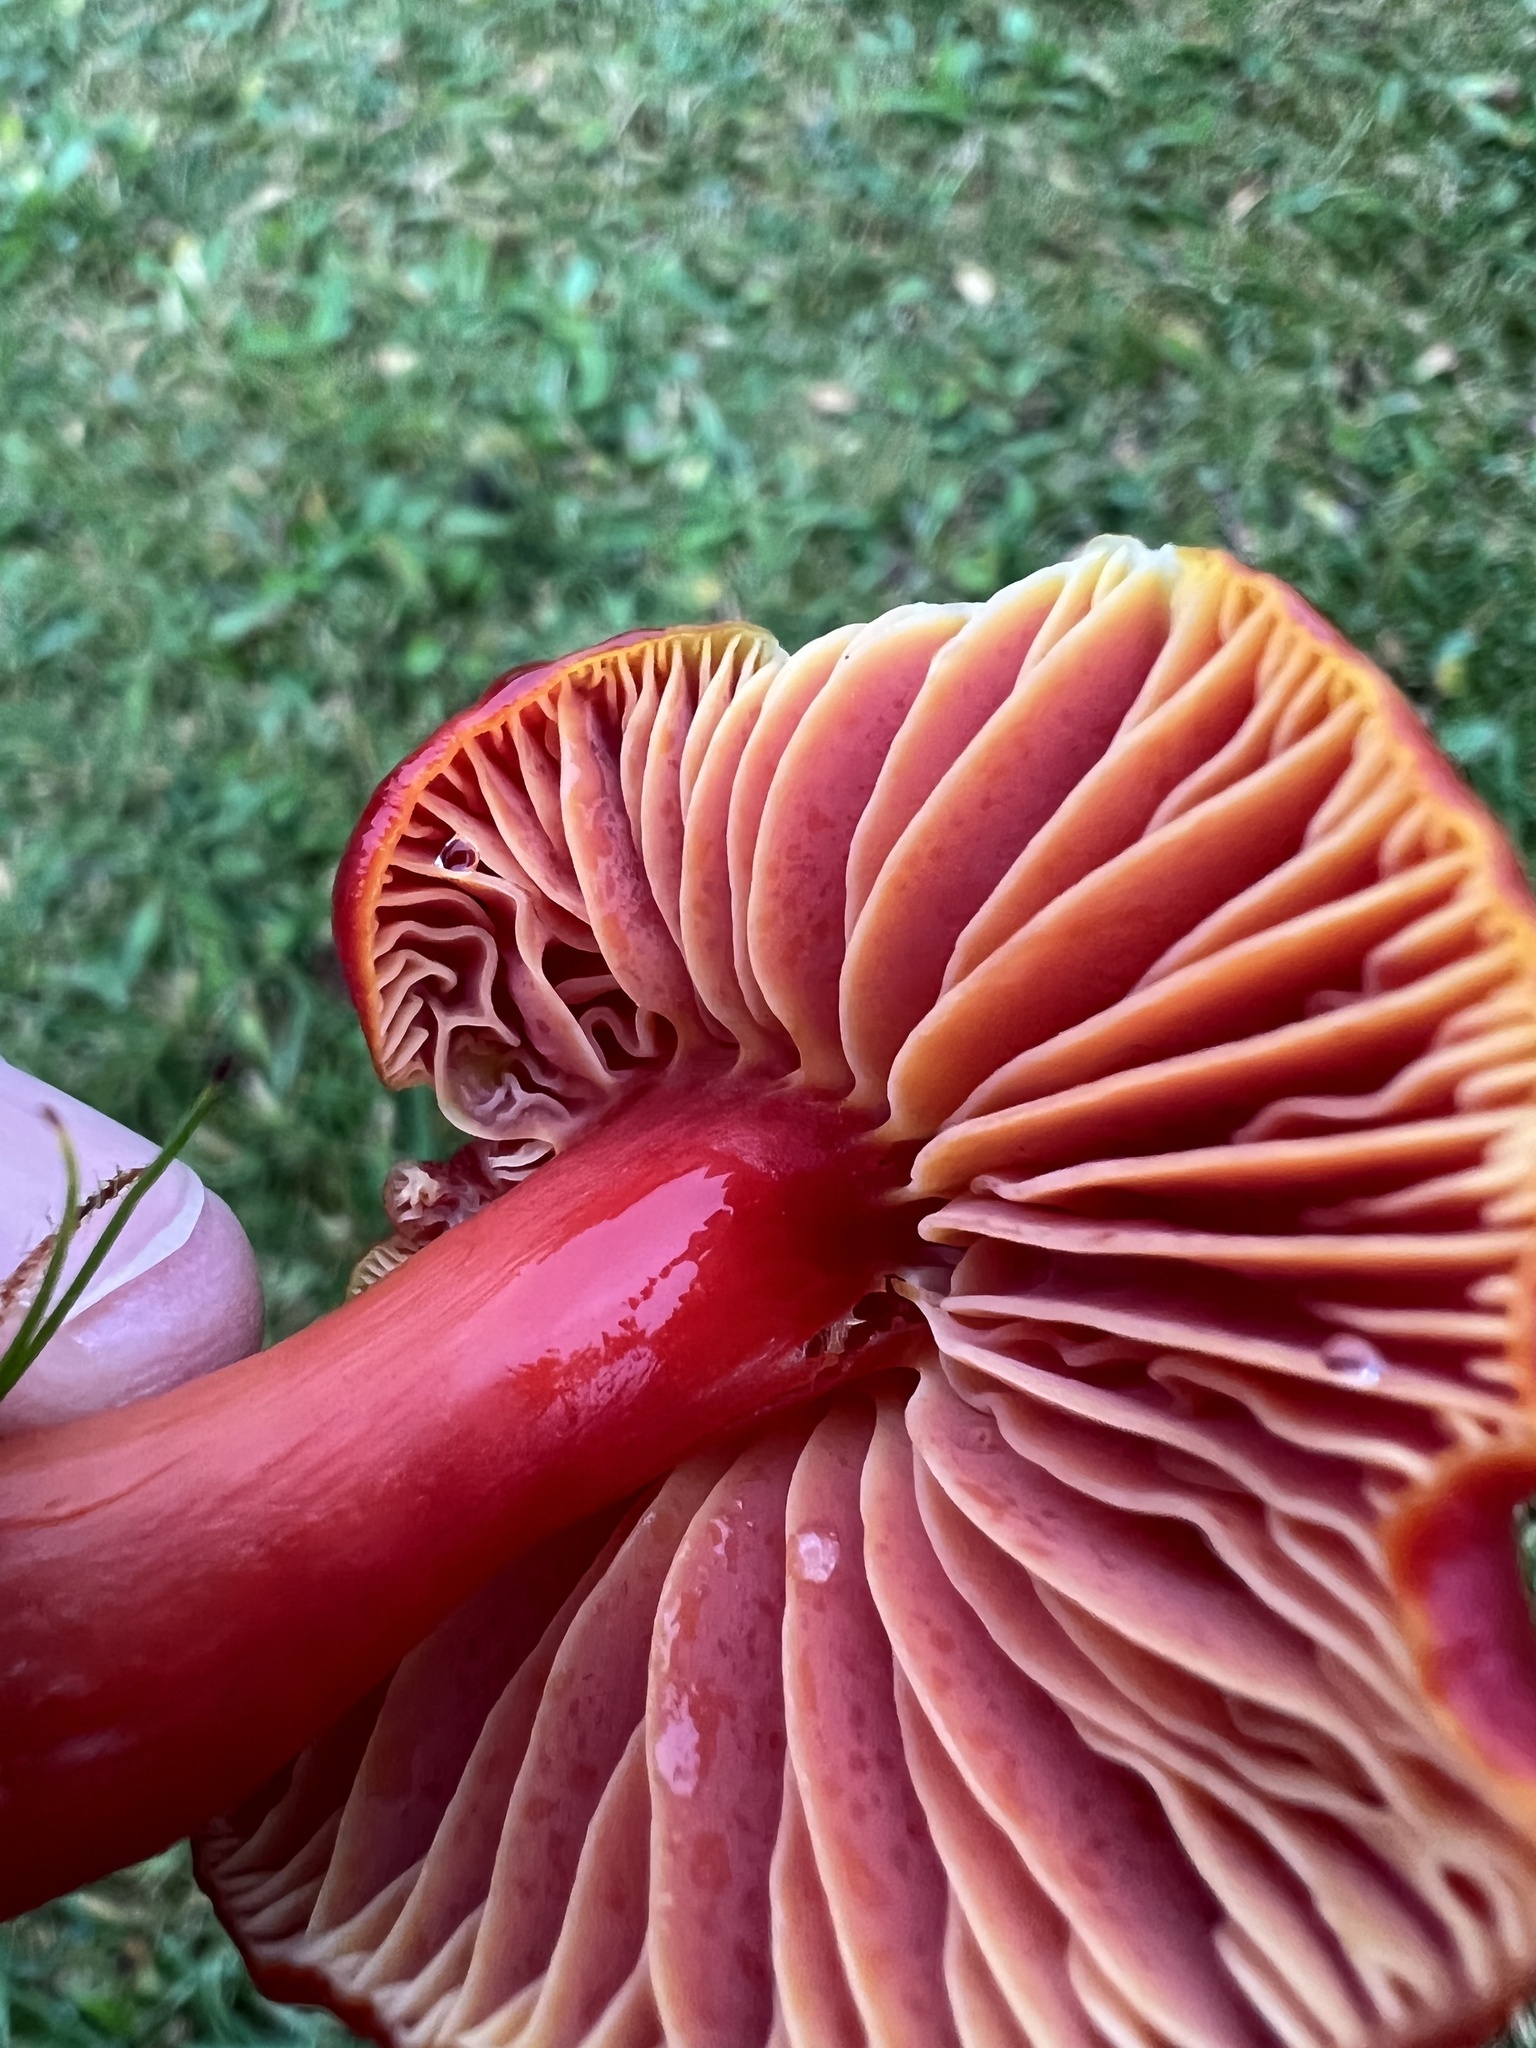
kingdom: Fungi
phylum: Basidiomycota
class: Agaricomycetes
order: Agaricales
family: Hygrophoraceae
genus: Hygrocybe
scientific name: Hygrocybe coccinea
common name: Scarlet hood
